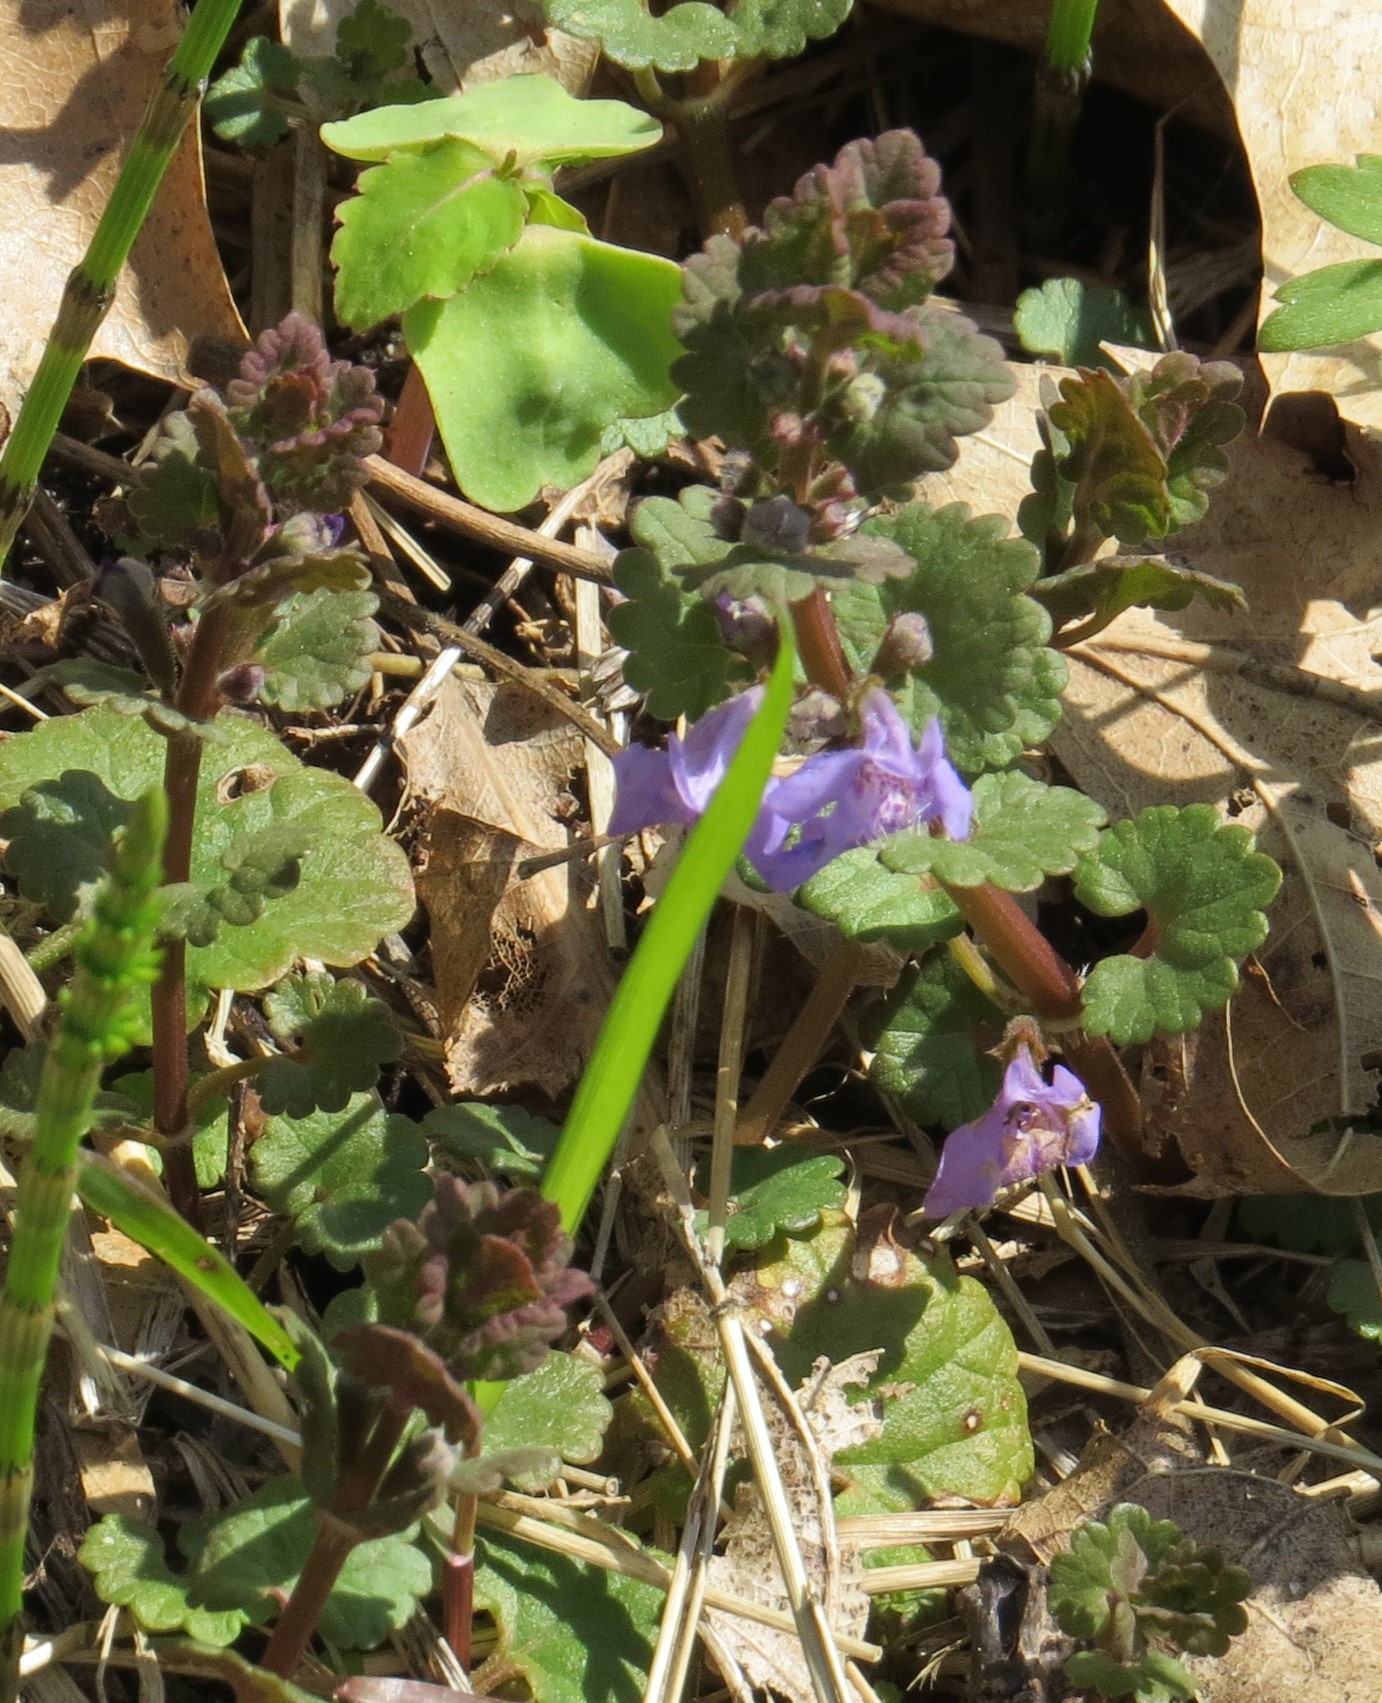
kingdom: Plantae
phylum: Tracheophyta
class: Magnoliopsida
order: Lamiales
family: Lamiaceae
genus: Glechoma
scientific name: Glechoma hederacea
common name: Ground ivy
